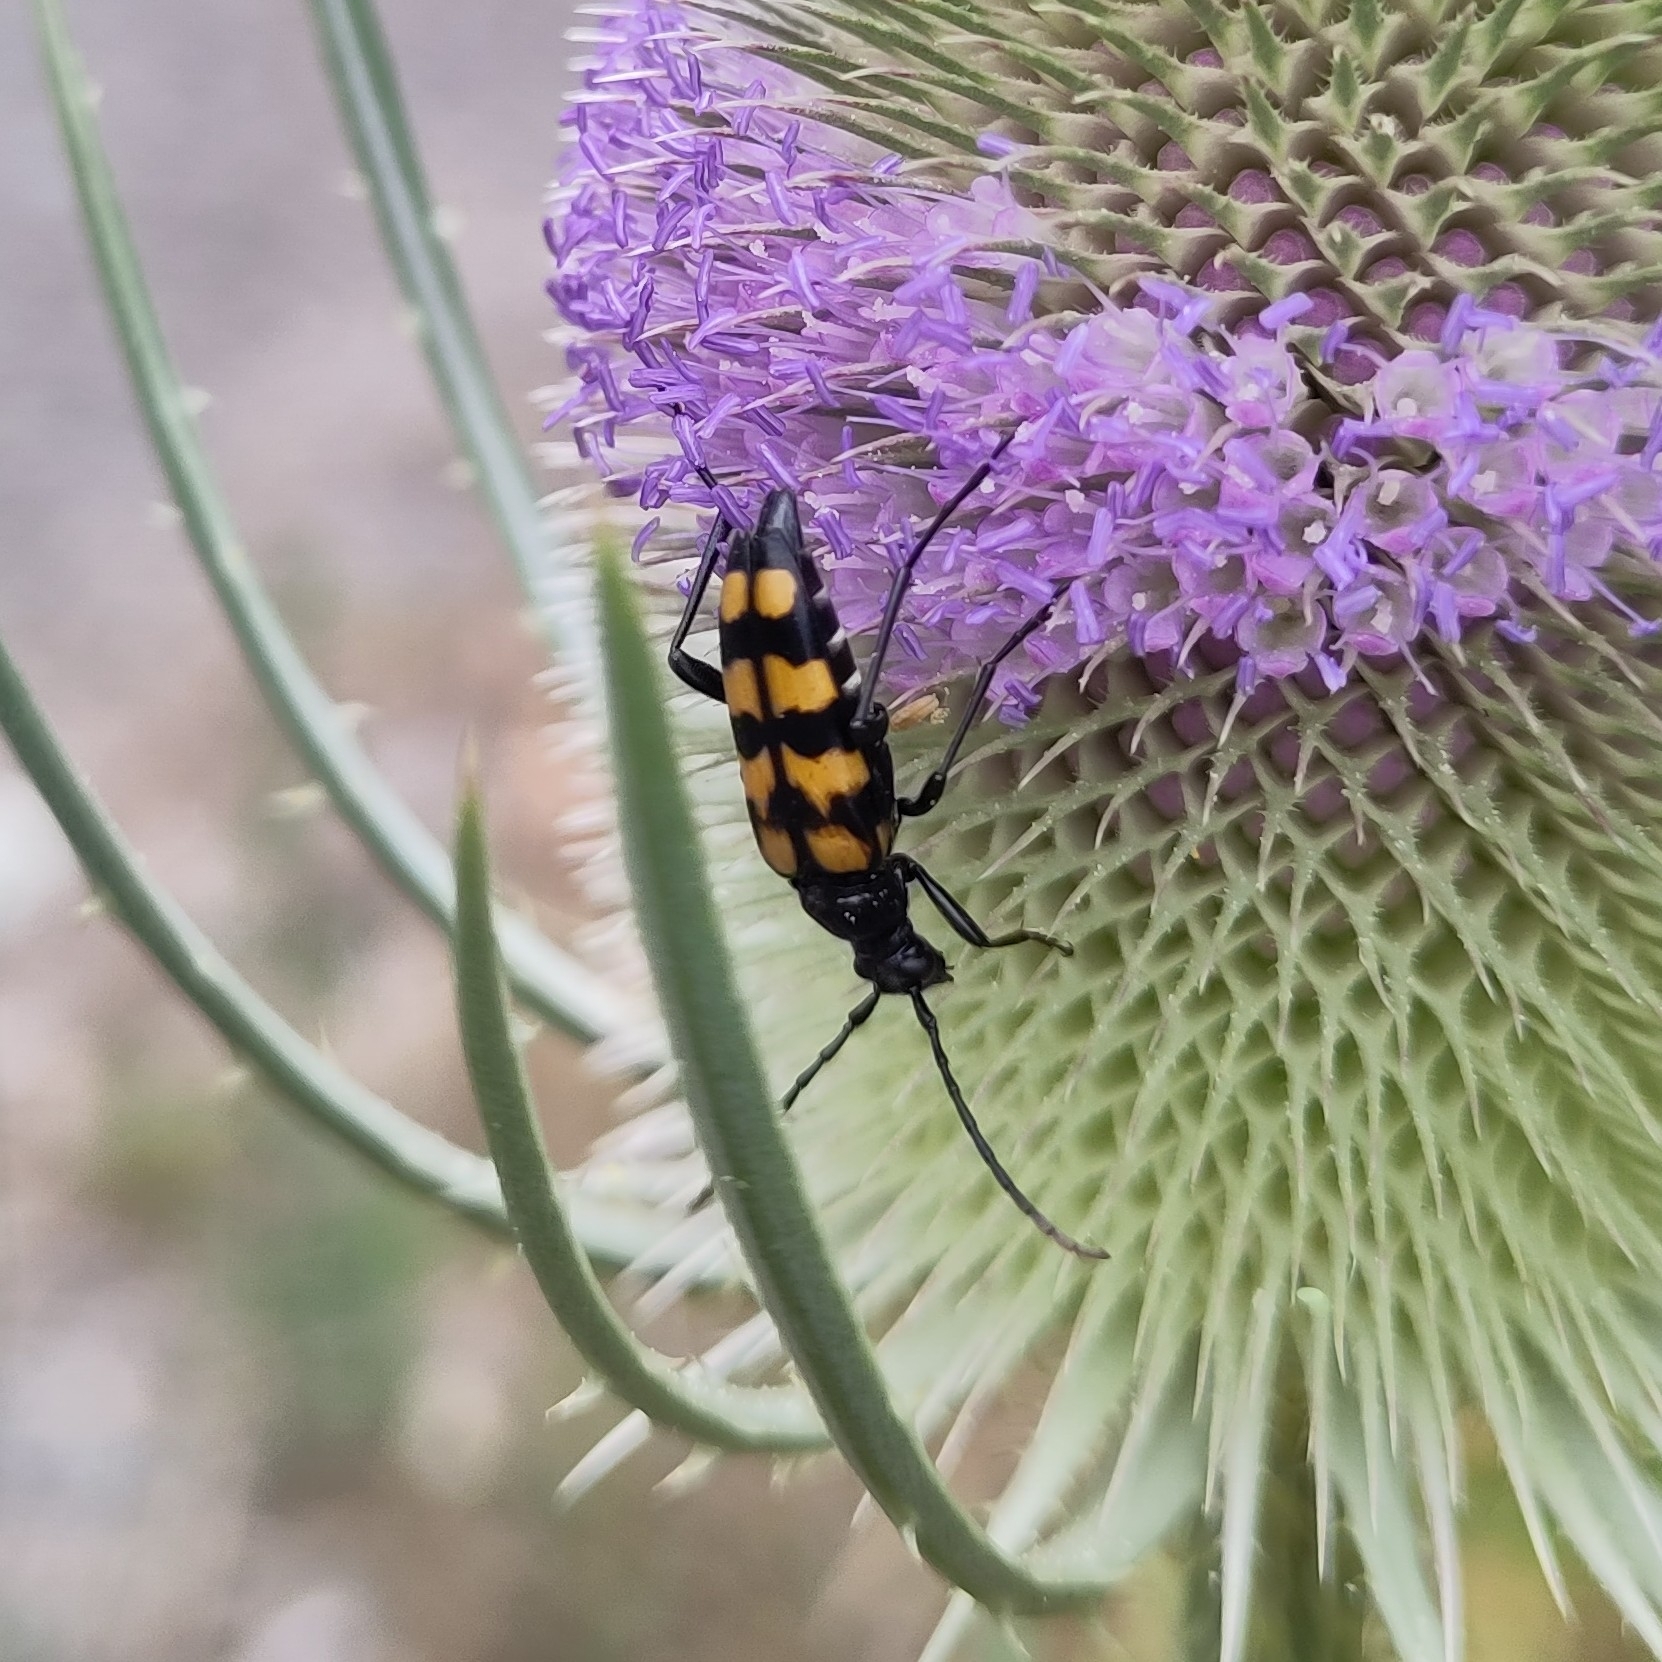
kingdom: Animalia
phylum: Arthropoda
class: Insecta
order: Coleoptera
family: Cerambycidae
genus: Leptura
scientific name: Leptura quadrifasciata
